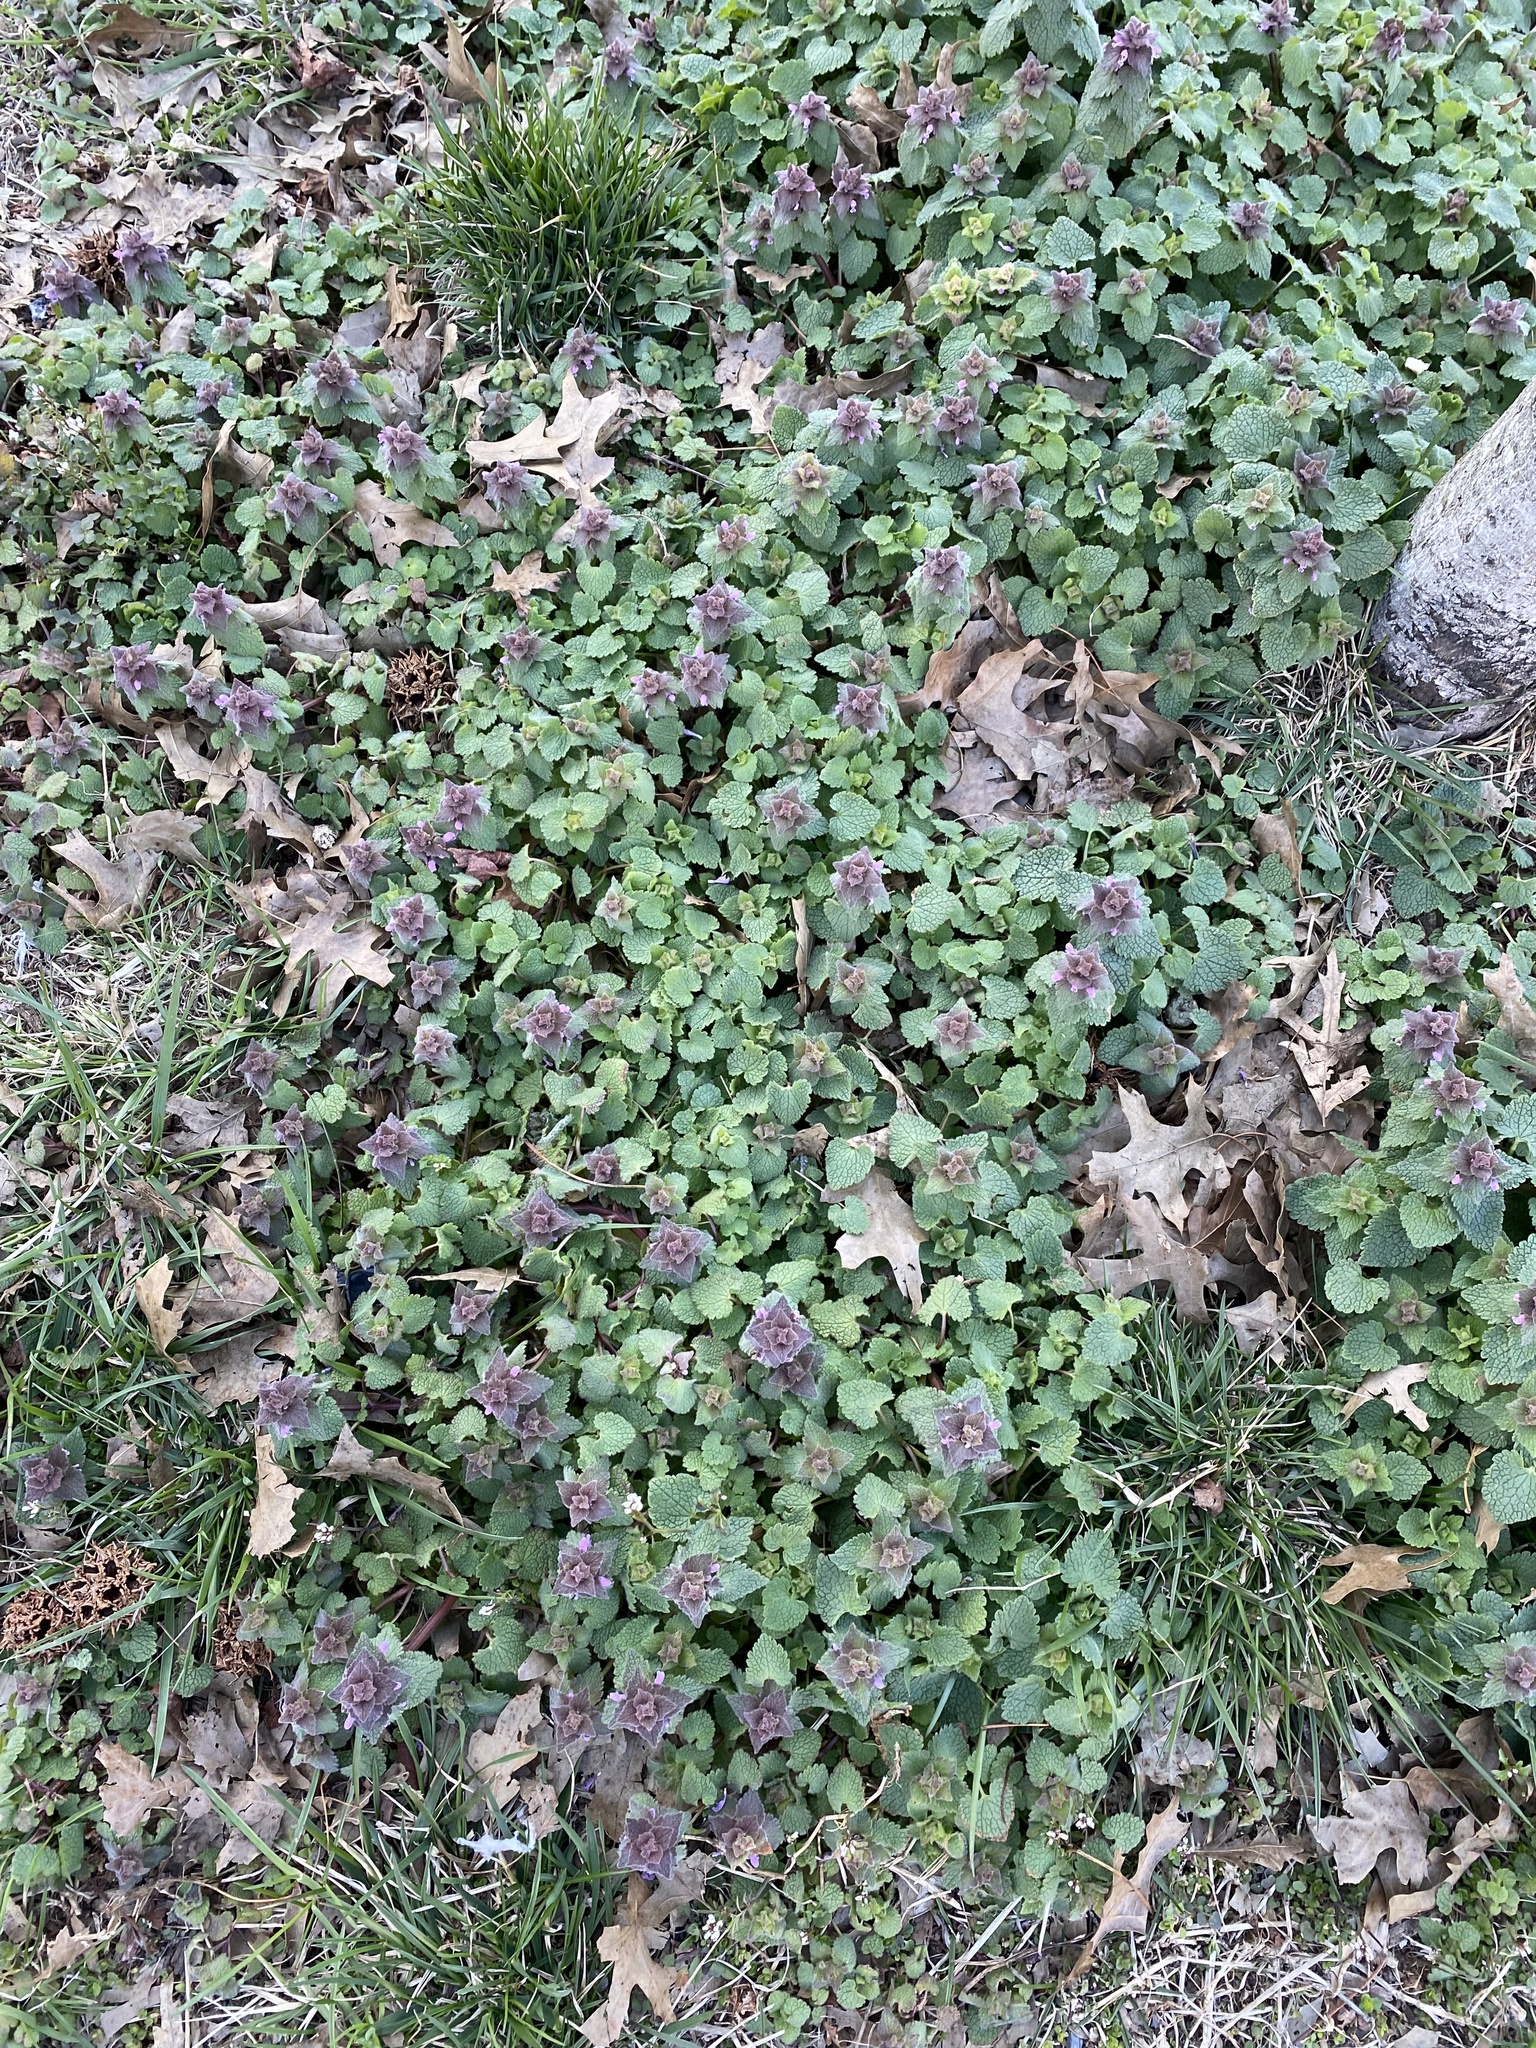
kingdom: Plantae
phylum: Tracheophyta
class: Magnoliopsida
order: Lamiales
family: Lamiaceae
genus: Lamium
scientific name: Lamium purpureum
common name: Red dead-nettle
